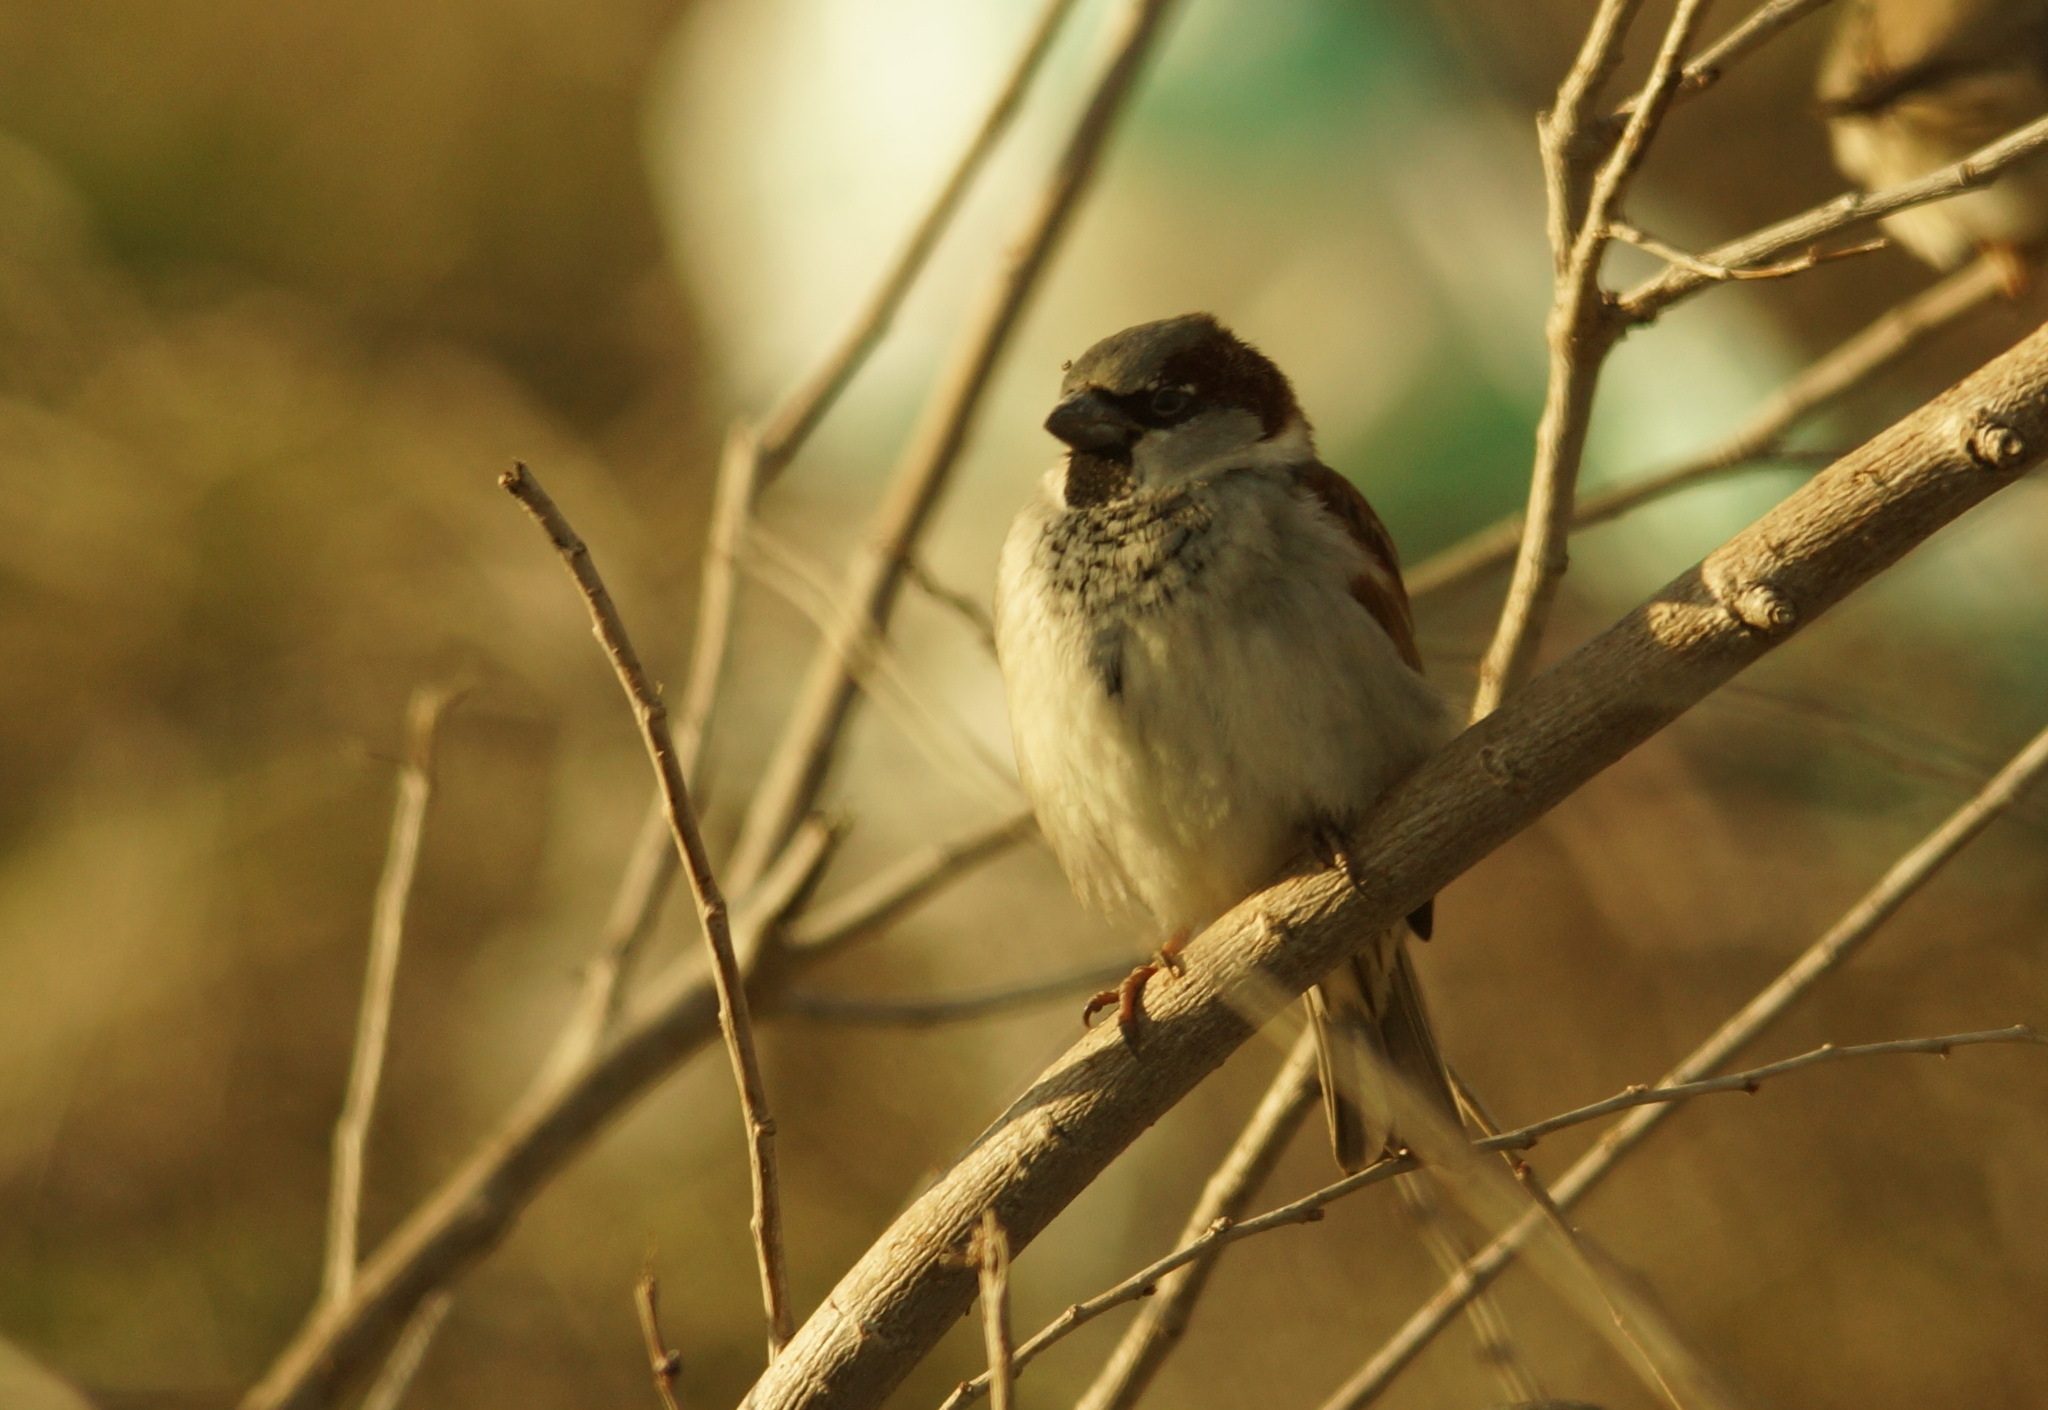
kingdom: Animalia
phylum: Chordata
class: Aves
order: Passeriformes
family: Passeridae
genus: Passer
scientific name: Passer domesticus
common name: House sparrow
